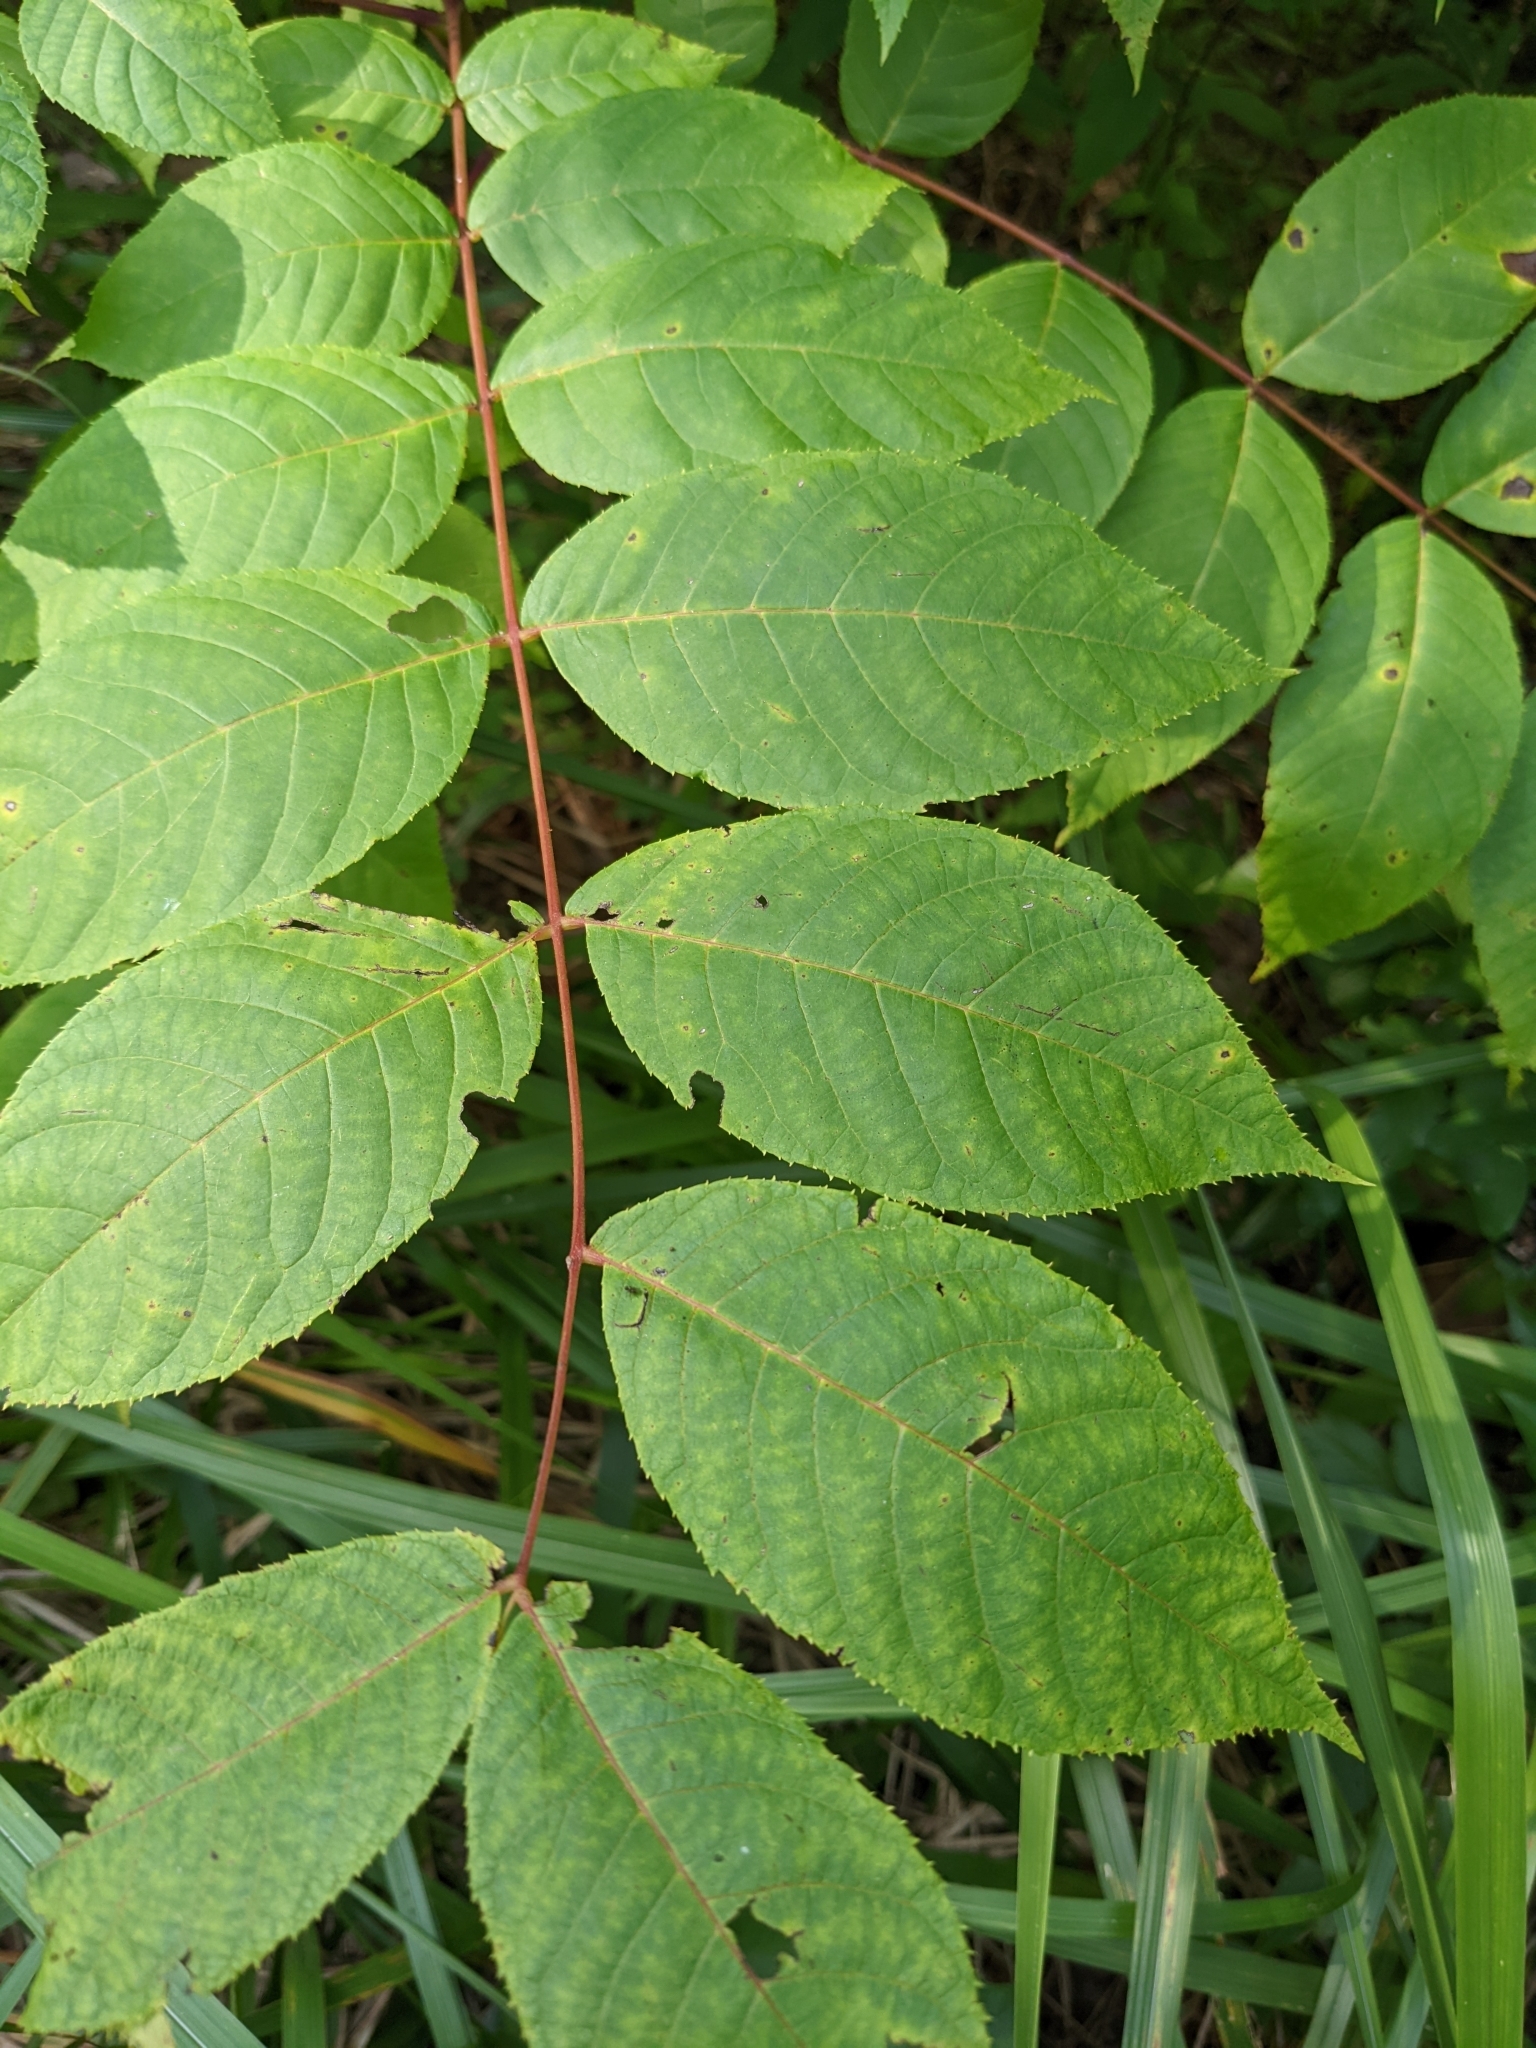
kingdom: Plantae
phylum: Tracheophyta
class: Magnoliopsida
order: Fagales
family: Juglandaceae
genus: Juglans
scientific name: Juglans nigra
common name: Black walnut
